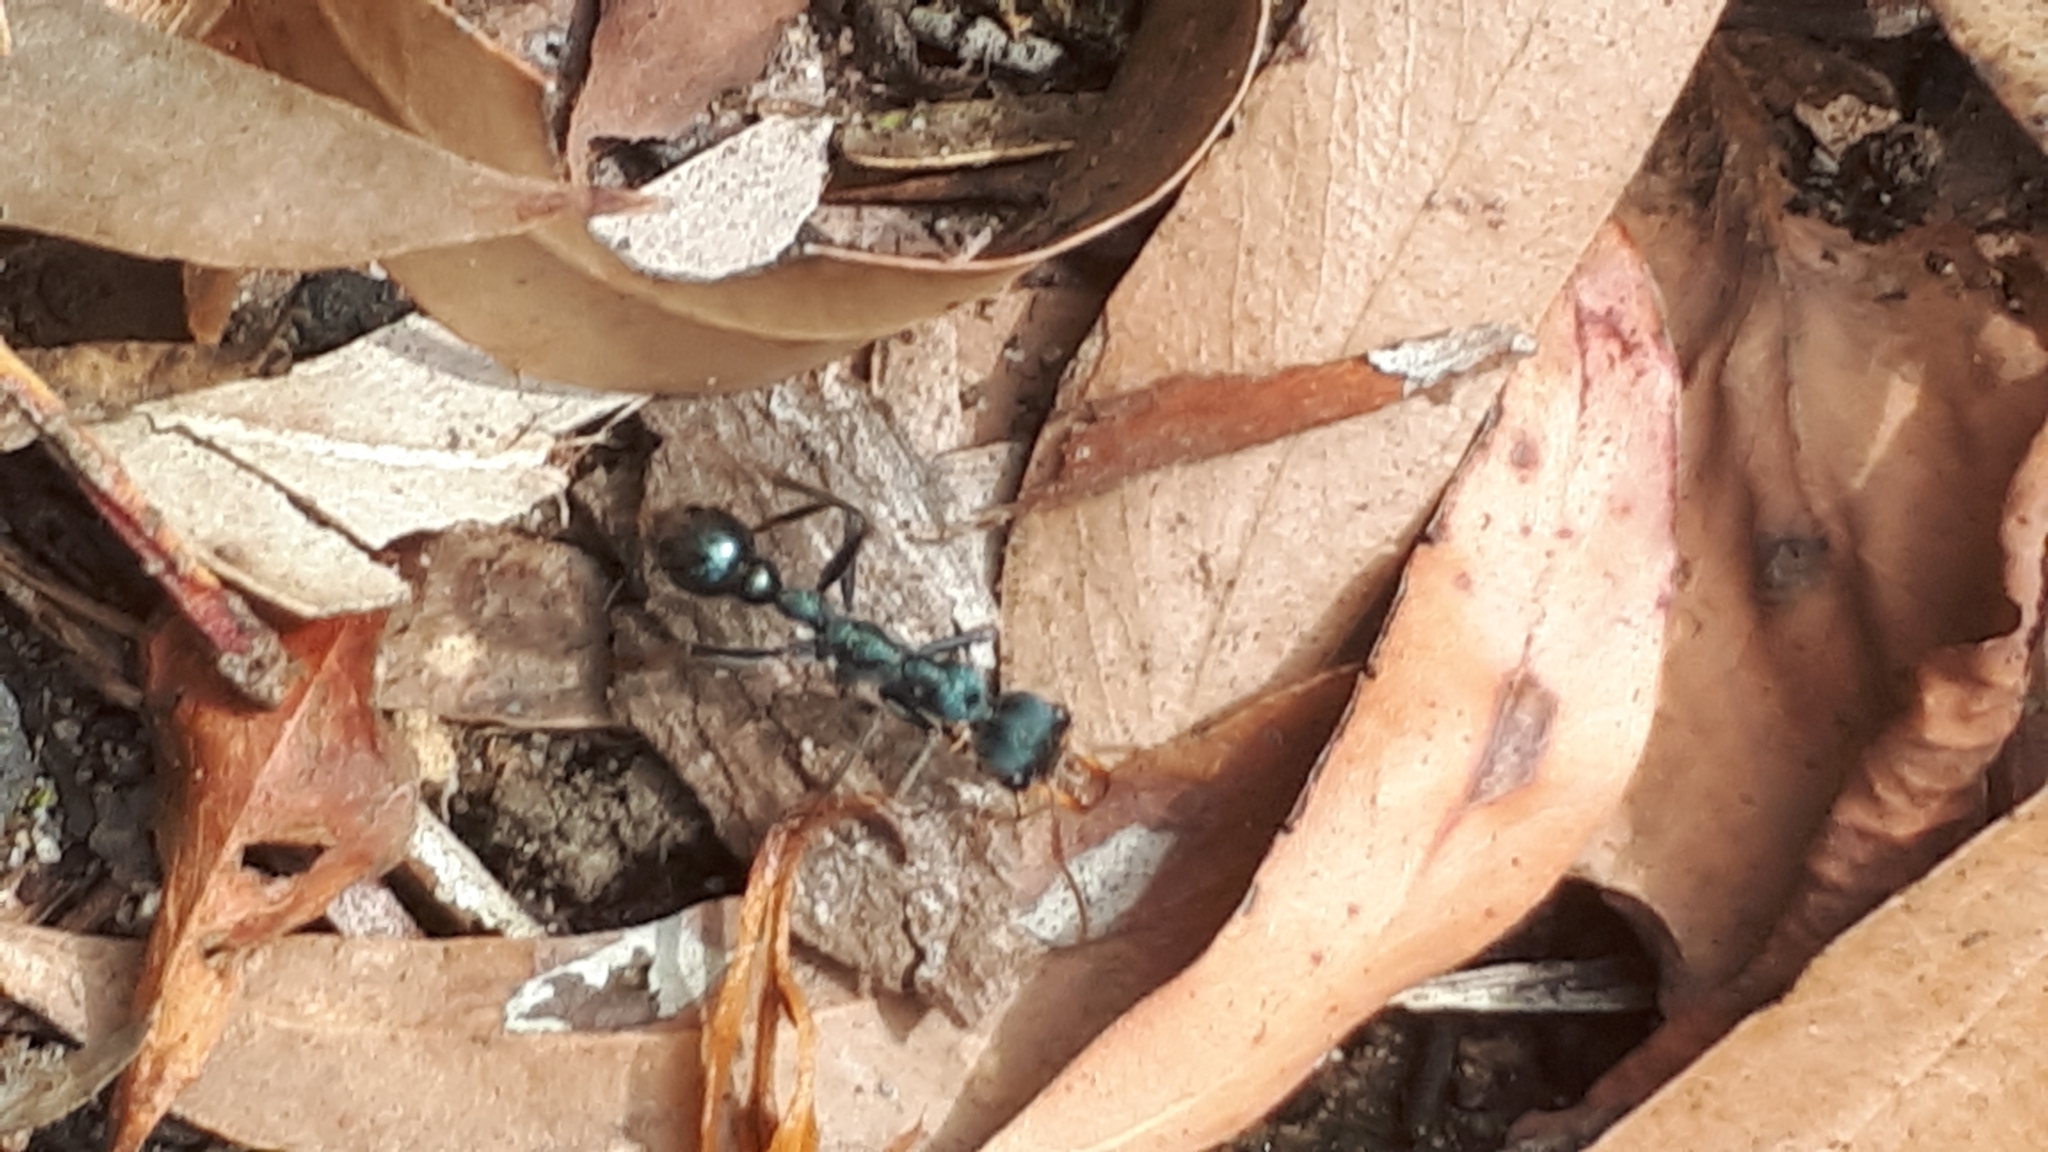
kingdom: Animalia
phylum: Arthropoda
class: Insecta
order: Hymenoptera
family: Formicidae
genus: Myrmecia
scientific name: Myrmecia tarsata
